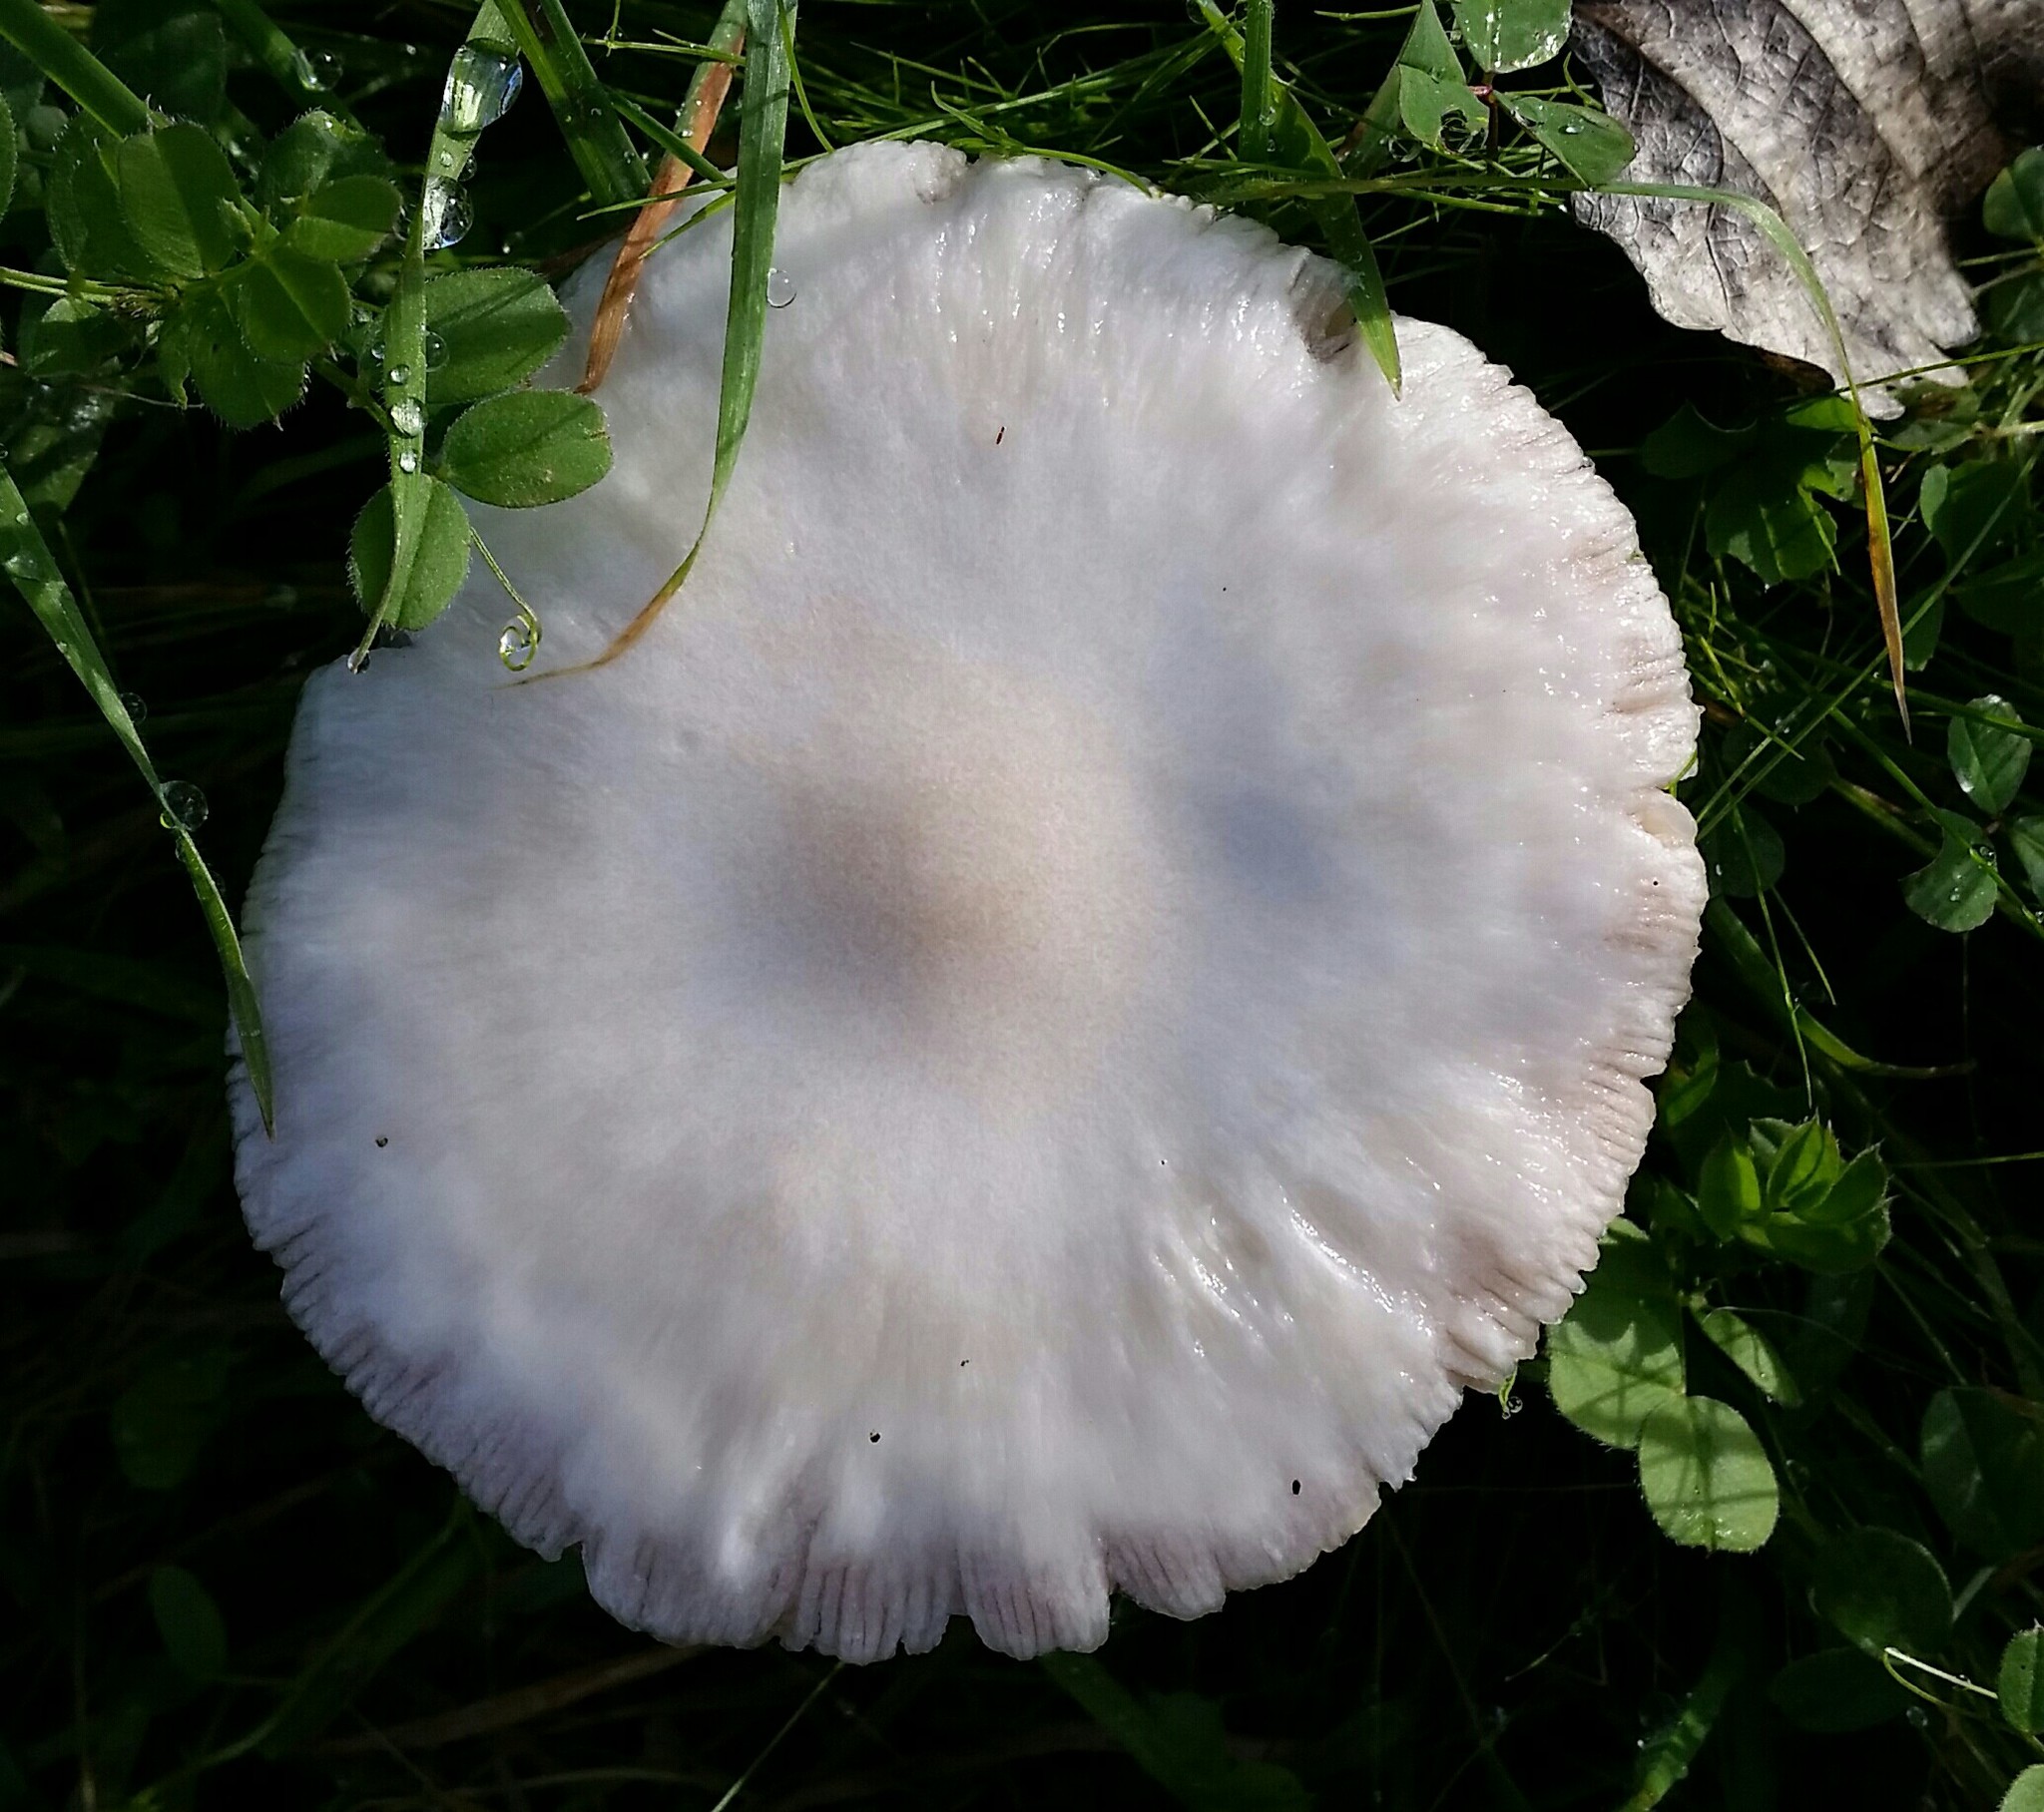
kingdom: Fungi
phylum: Basidiomycota
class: Agaricomycetes
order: Agaricales
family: Pluteaceae
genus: Volvopluteus
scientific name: Volvopluteus gloiocephalus
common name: Stubble rosegill
